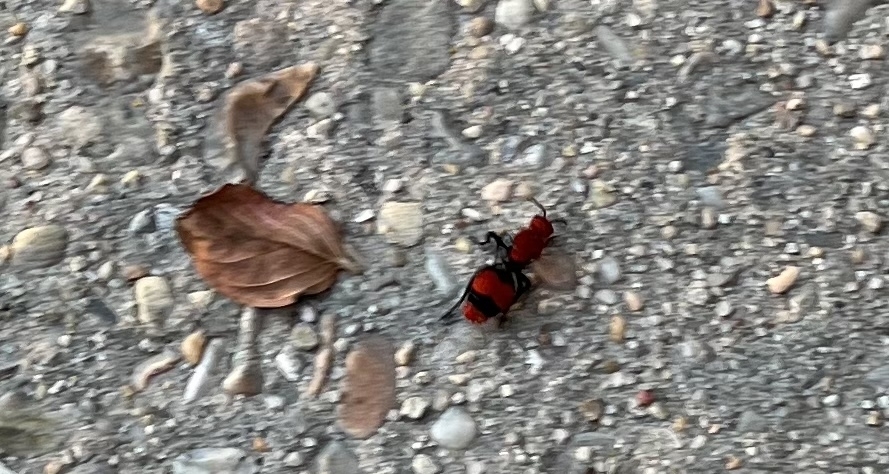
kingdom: Animalia
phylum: Arthropoda
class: Insecta
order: Hymenoptera
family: Mutillidae
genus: Dasymutilla
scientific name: Dasymutilla occidentalis
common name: Common eastern velvet ant
